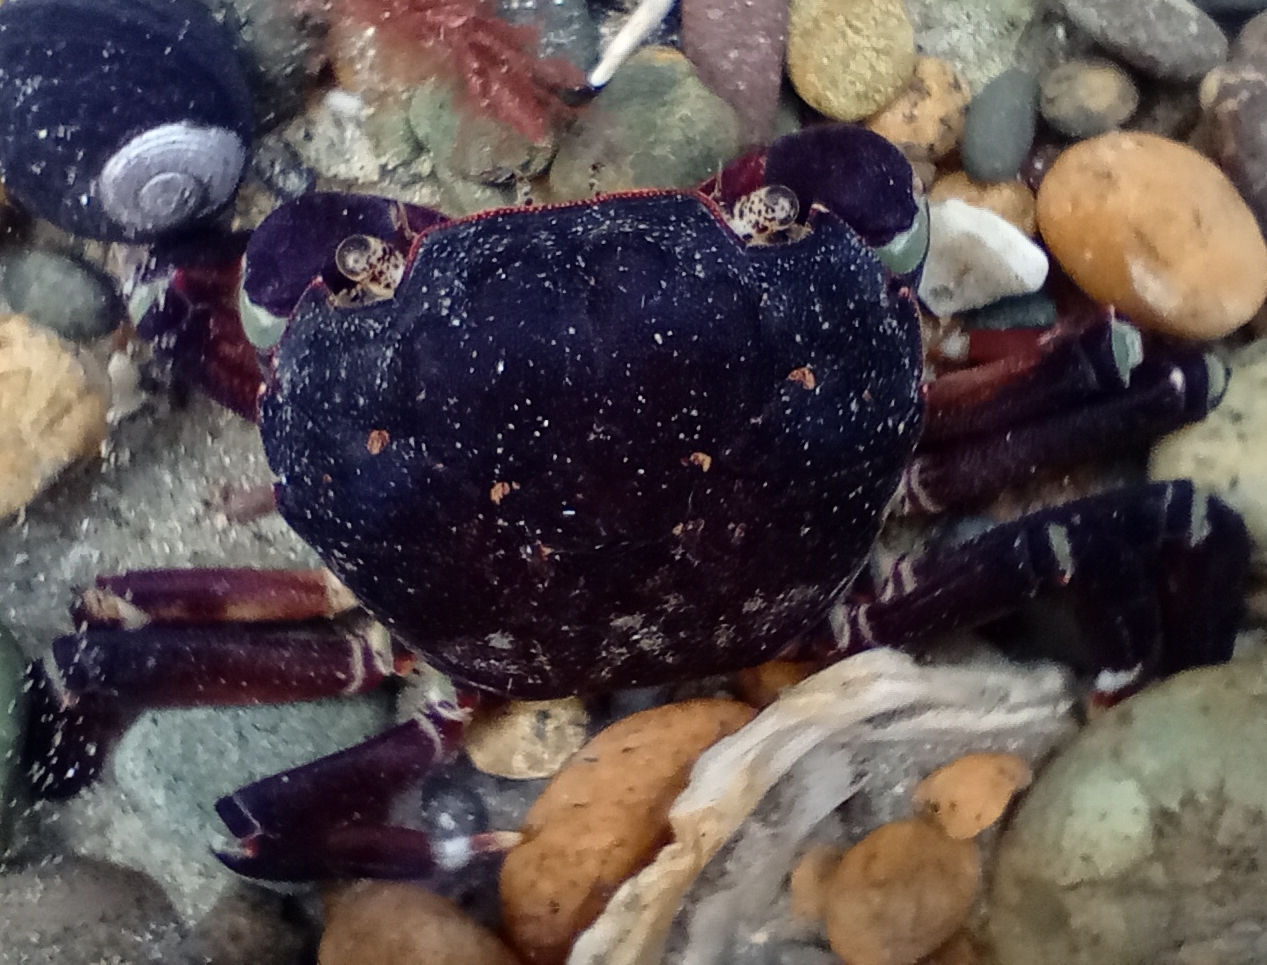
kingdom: Animalia
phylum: Arthropoda
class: Malacostraca
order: Decapoda
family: Varunidae
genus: Hemigrapsus
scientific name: Hemigrapsus sexdentatus
